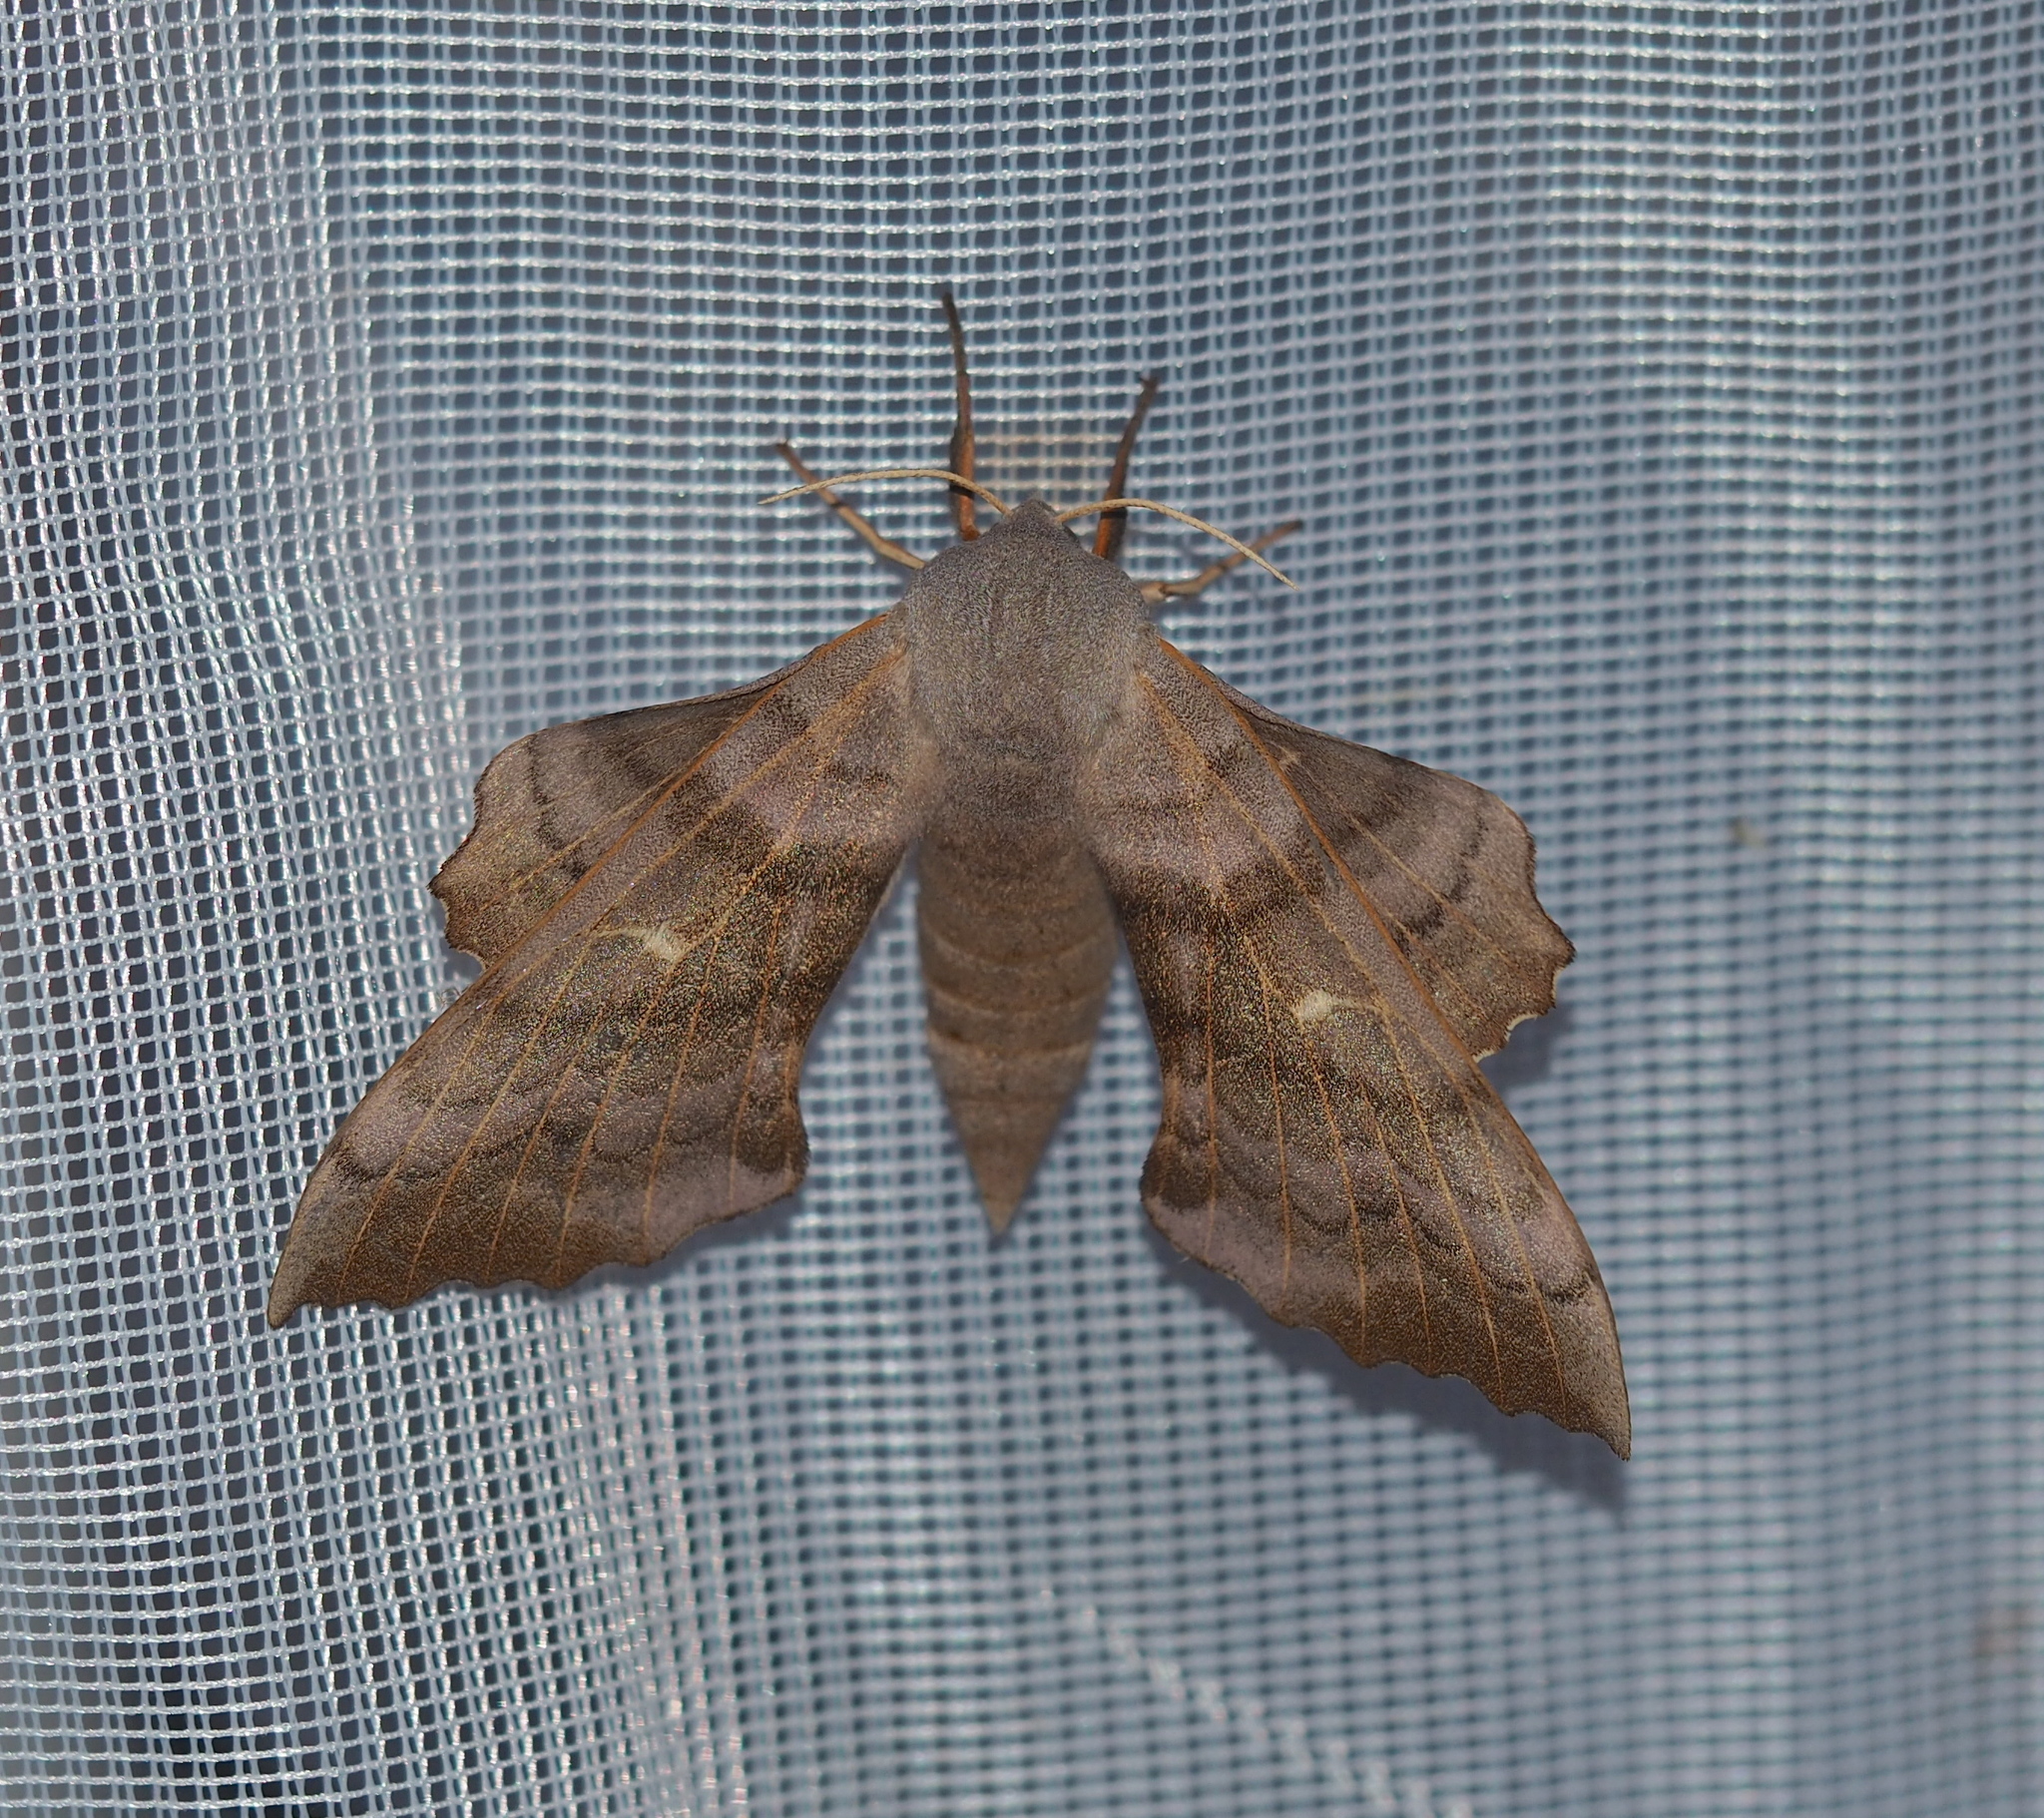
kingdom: Animalia
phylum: Arthropoda
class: Insecta
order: Lepidoptera
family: Sphingidae
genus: Laothoe
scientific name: Laothoe populi
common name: Poplar hawk-moth
